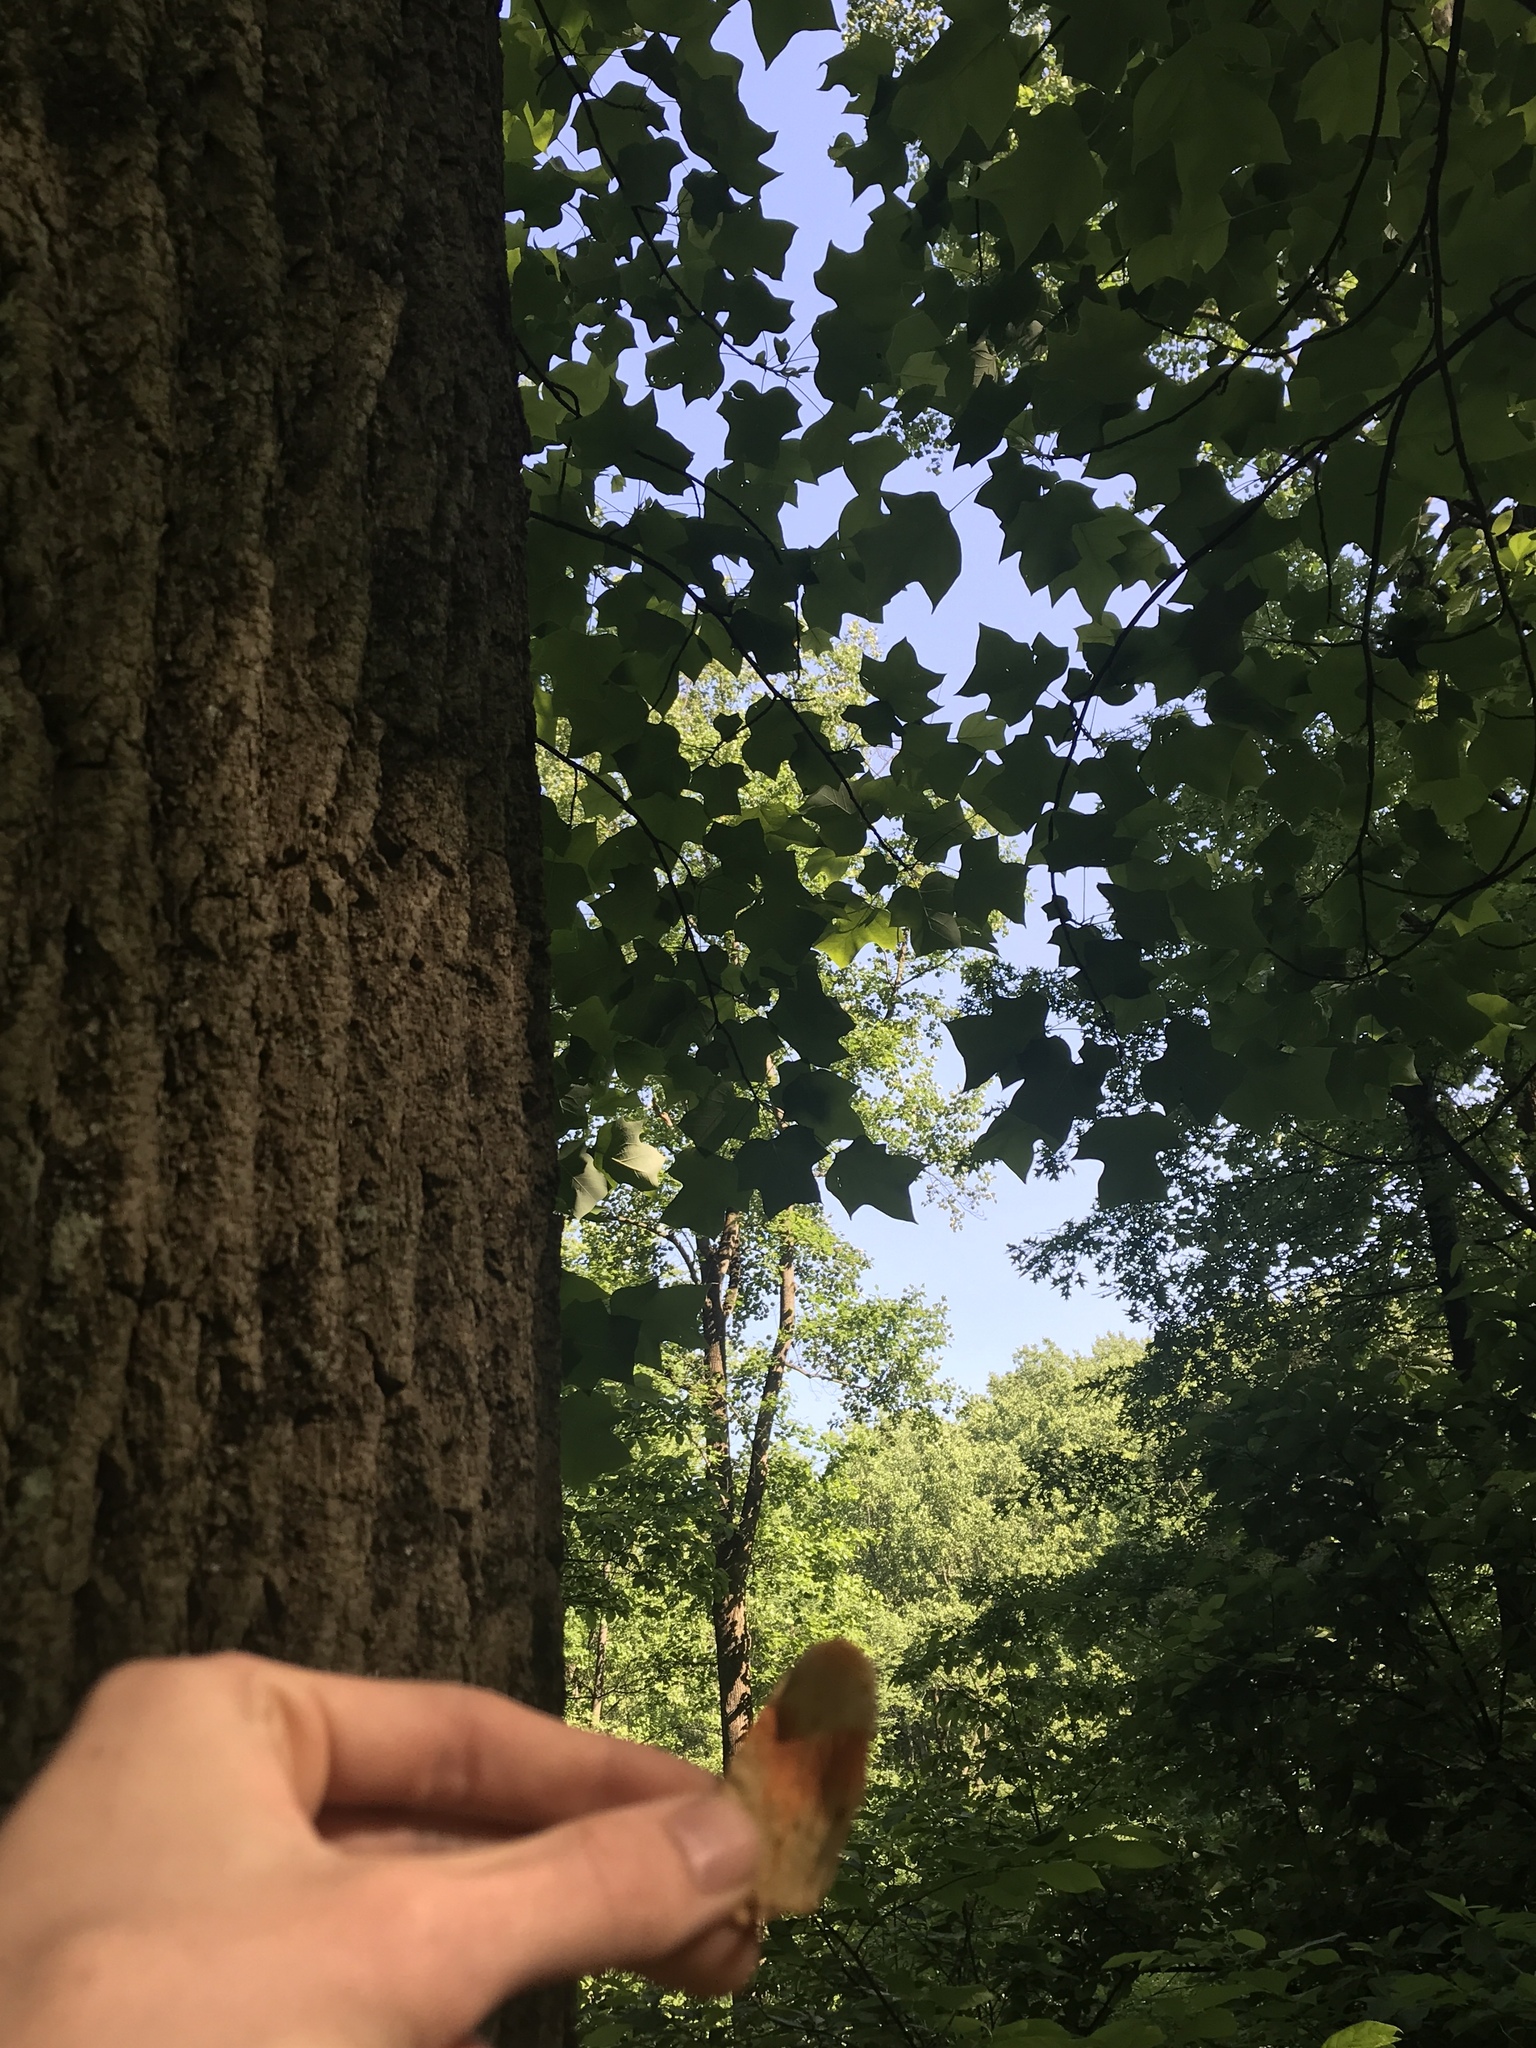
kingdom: Plantae
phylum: Tracheophyta
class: Magnoliopsida
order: Magnoliales
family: Magnoliaceae
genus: Liriodendron
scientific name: Liriodendron tulipifera
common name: Tulip tree
